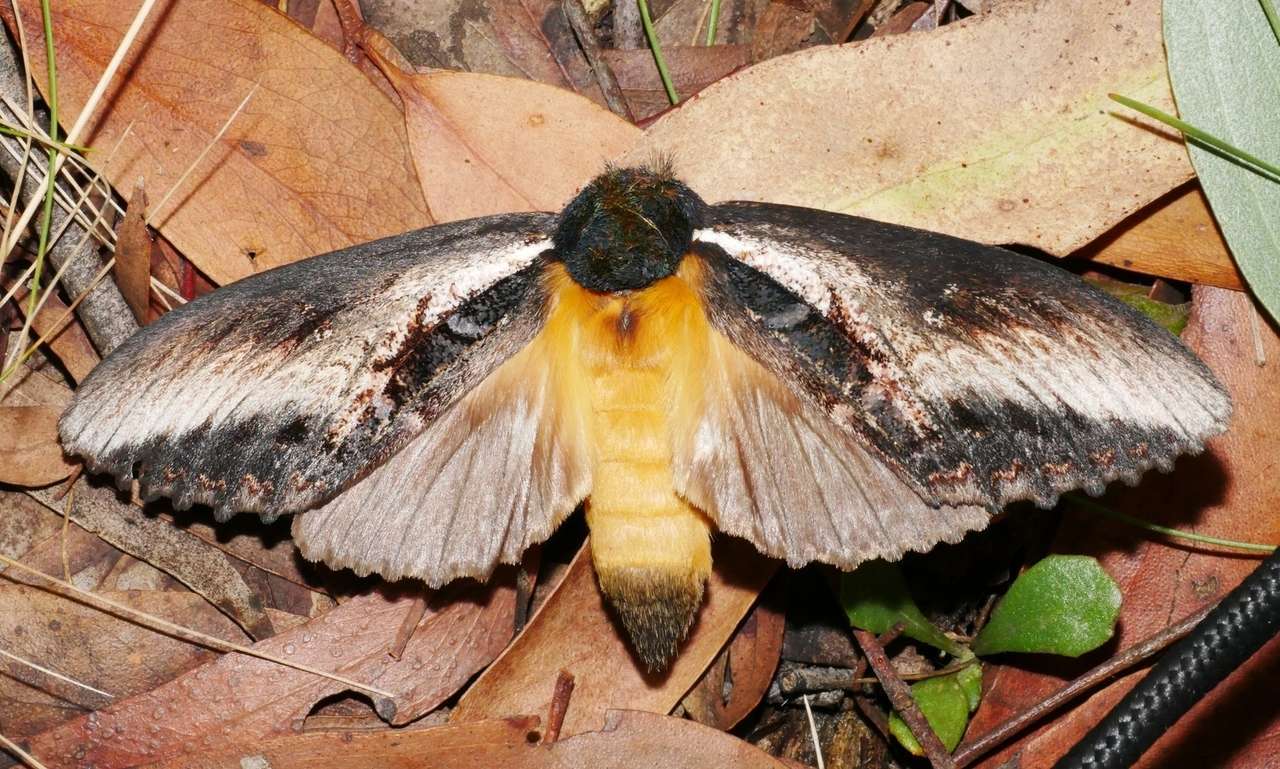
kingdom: Animalia
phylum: Arthropoda
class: Insecta
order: Lepidoptera
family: Notodontidae
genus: Hylaeora
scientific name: Hylaeora caustopis
